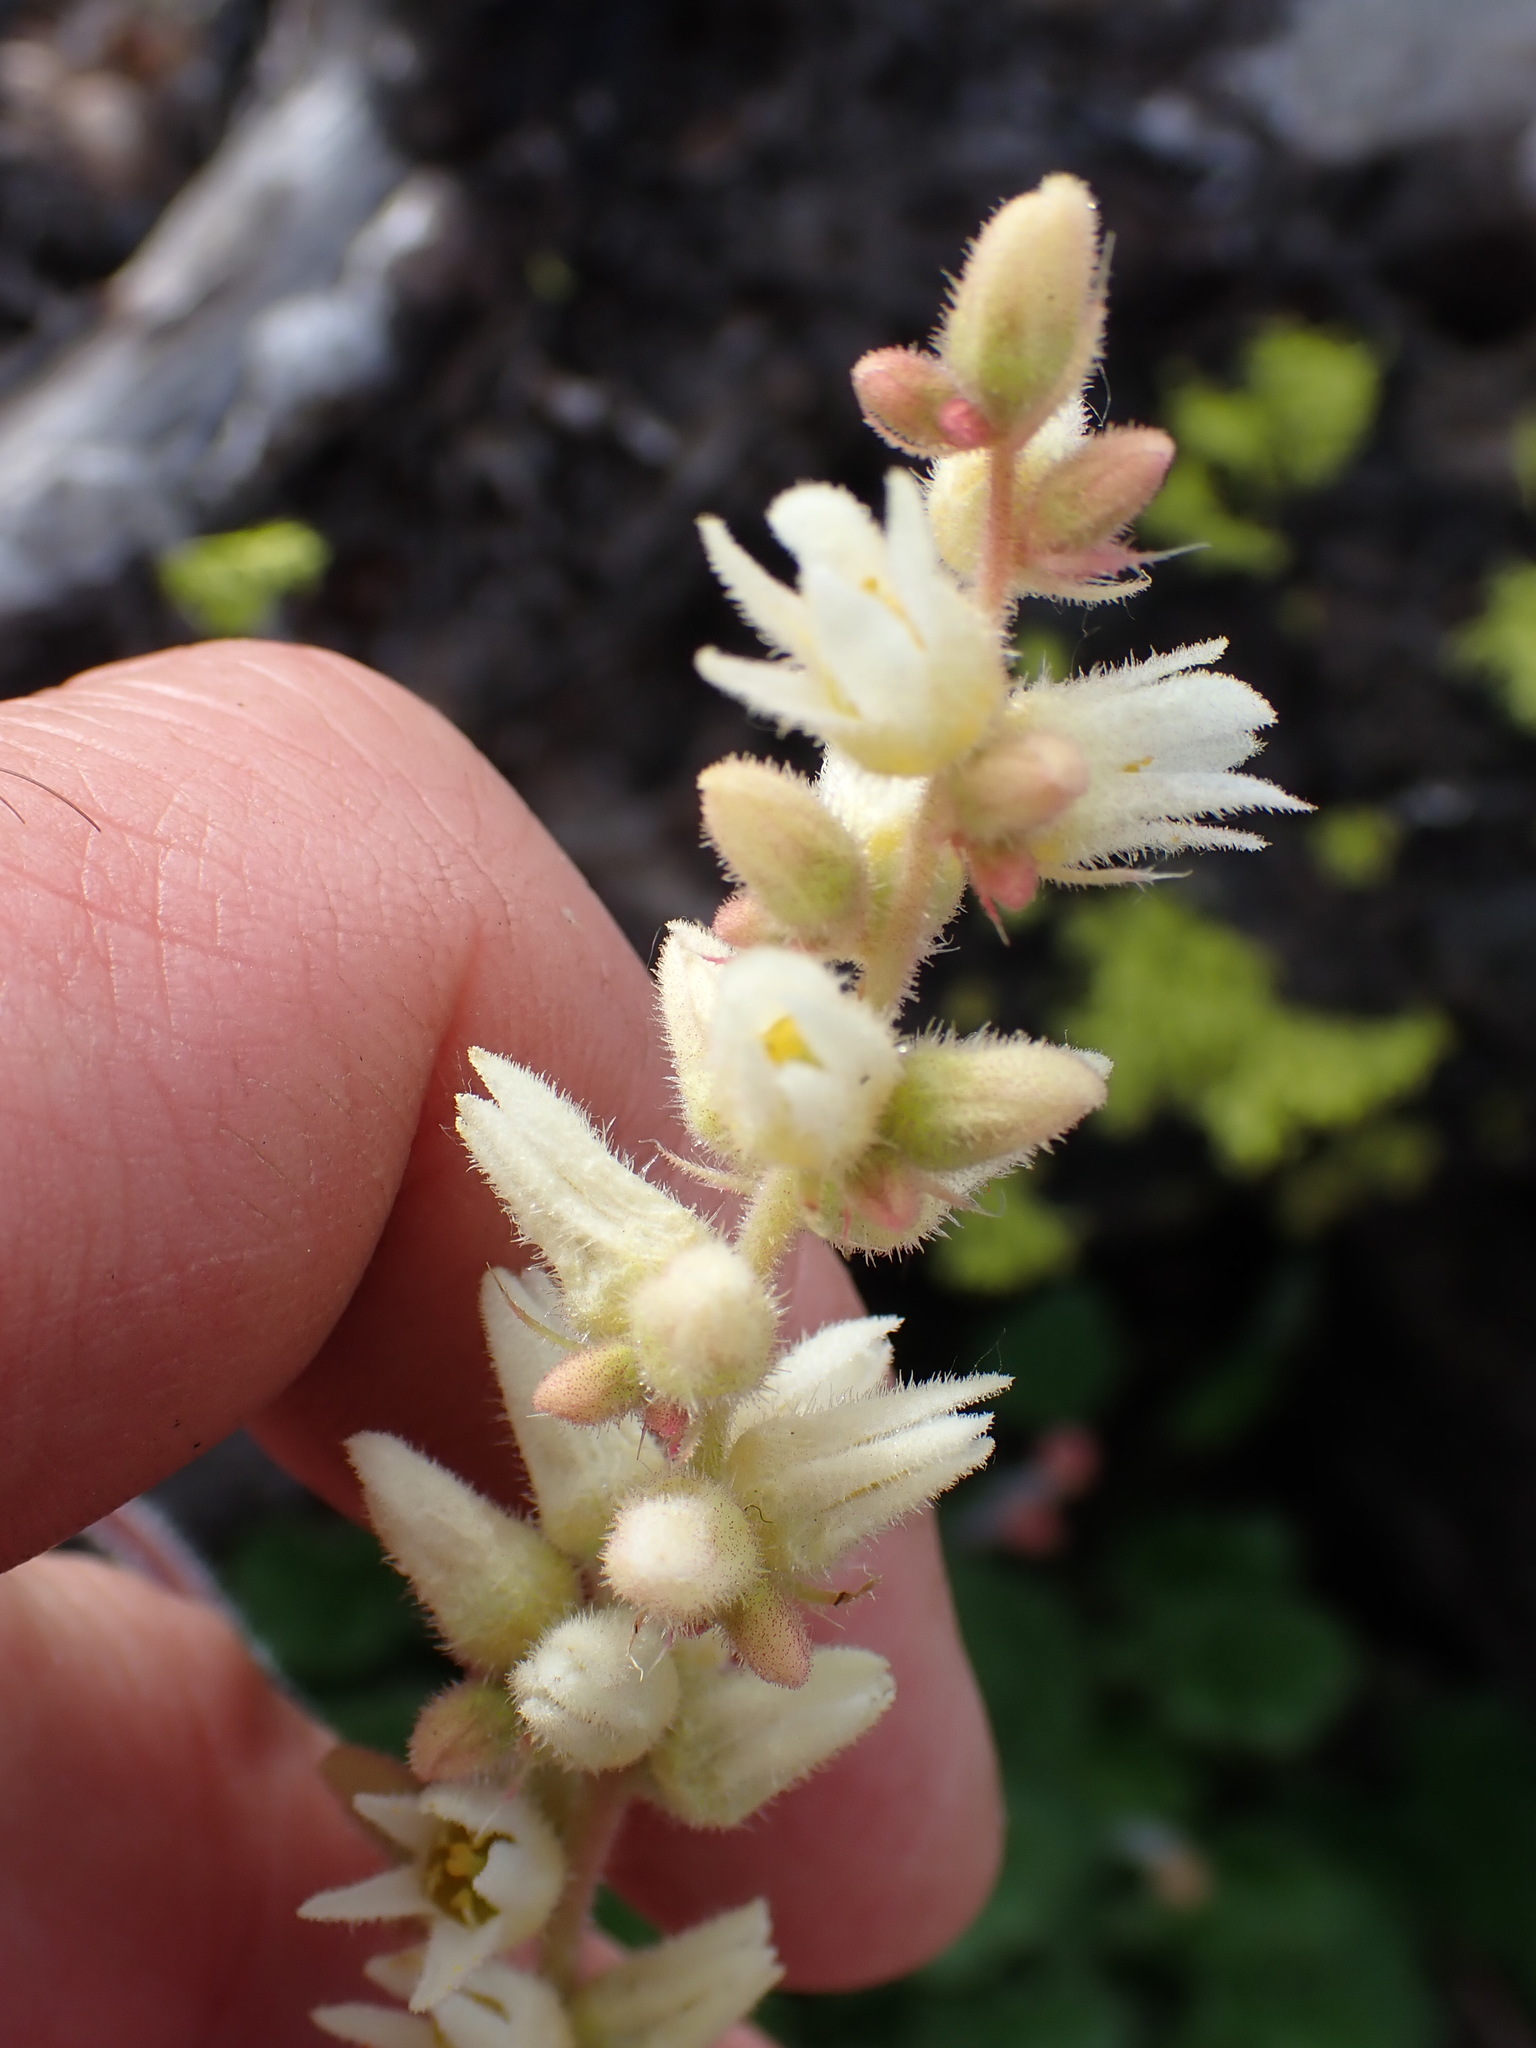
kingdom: Plantae
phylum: Tracheophyta
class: Magnoliopsida
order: Saxifragales
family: Saxifragaceae
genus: Heuchera
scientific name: Heuchera cylindrica
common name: Mat alumroot
